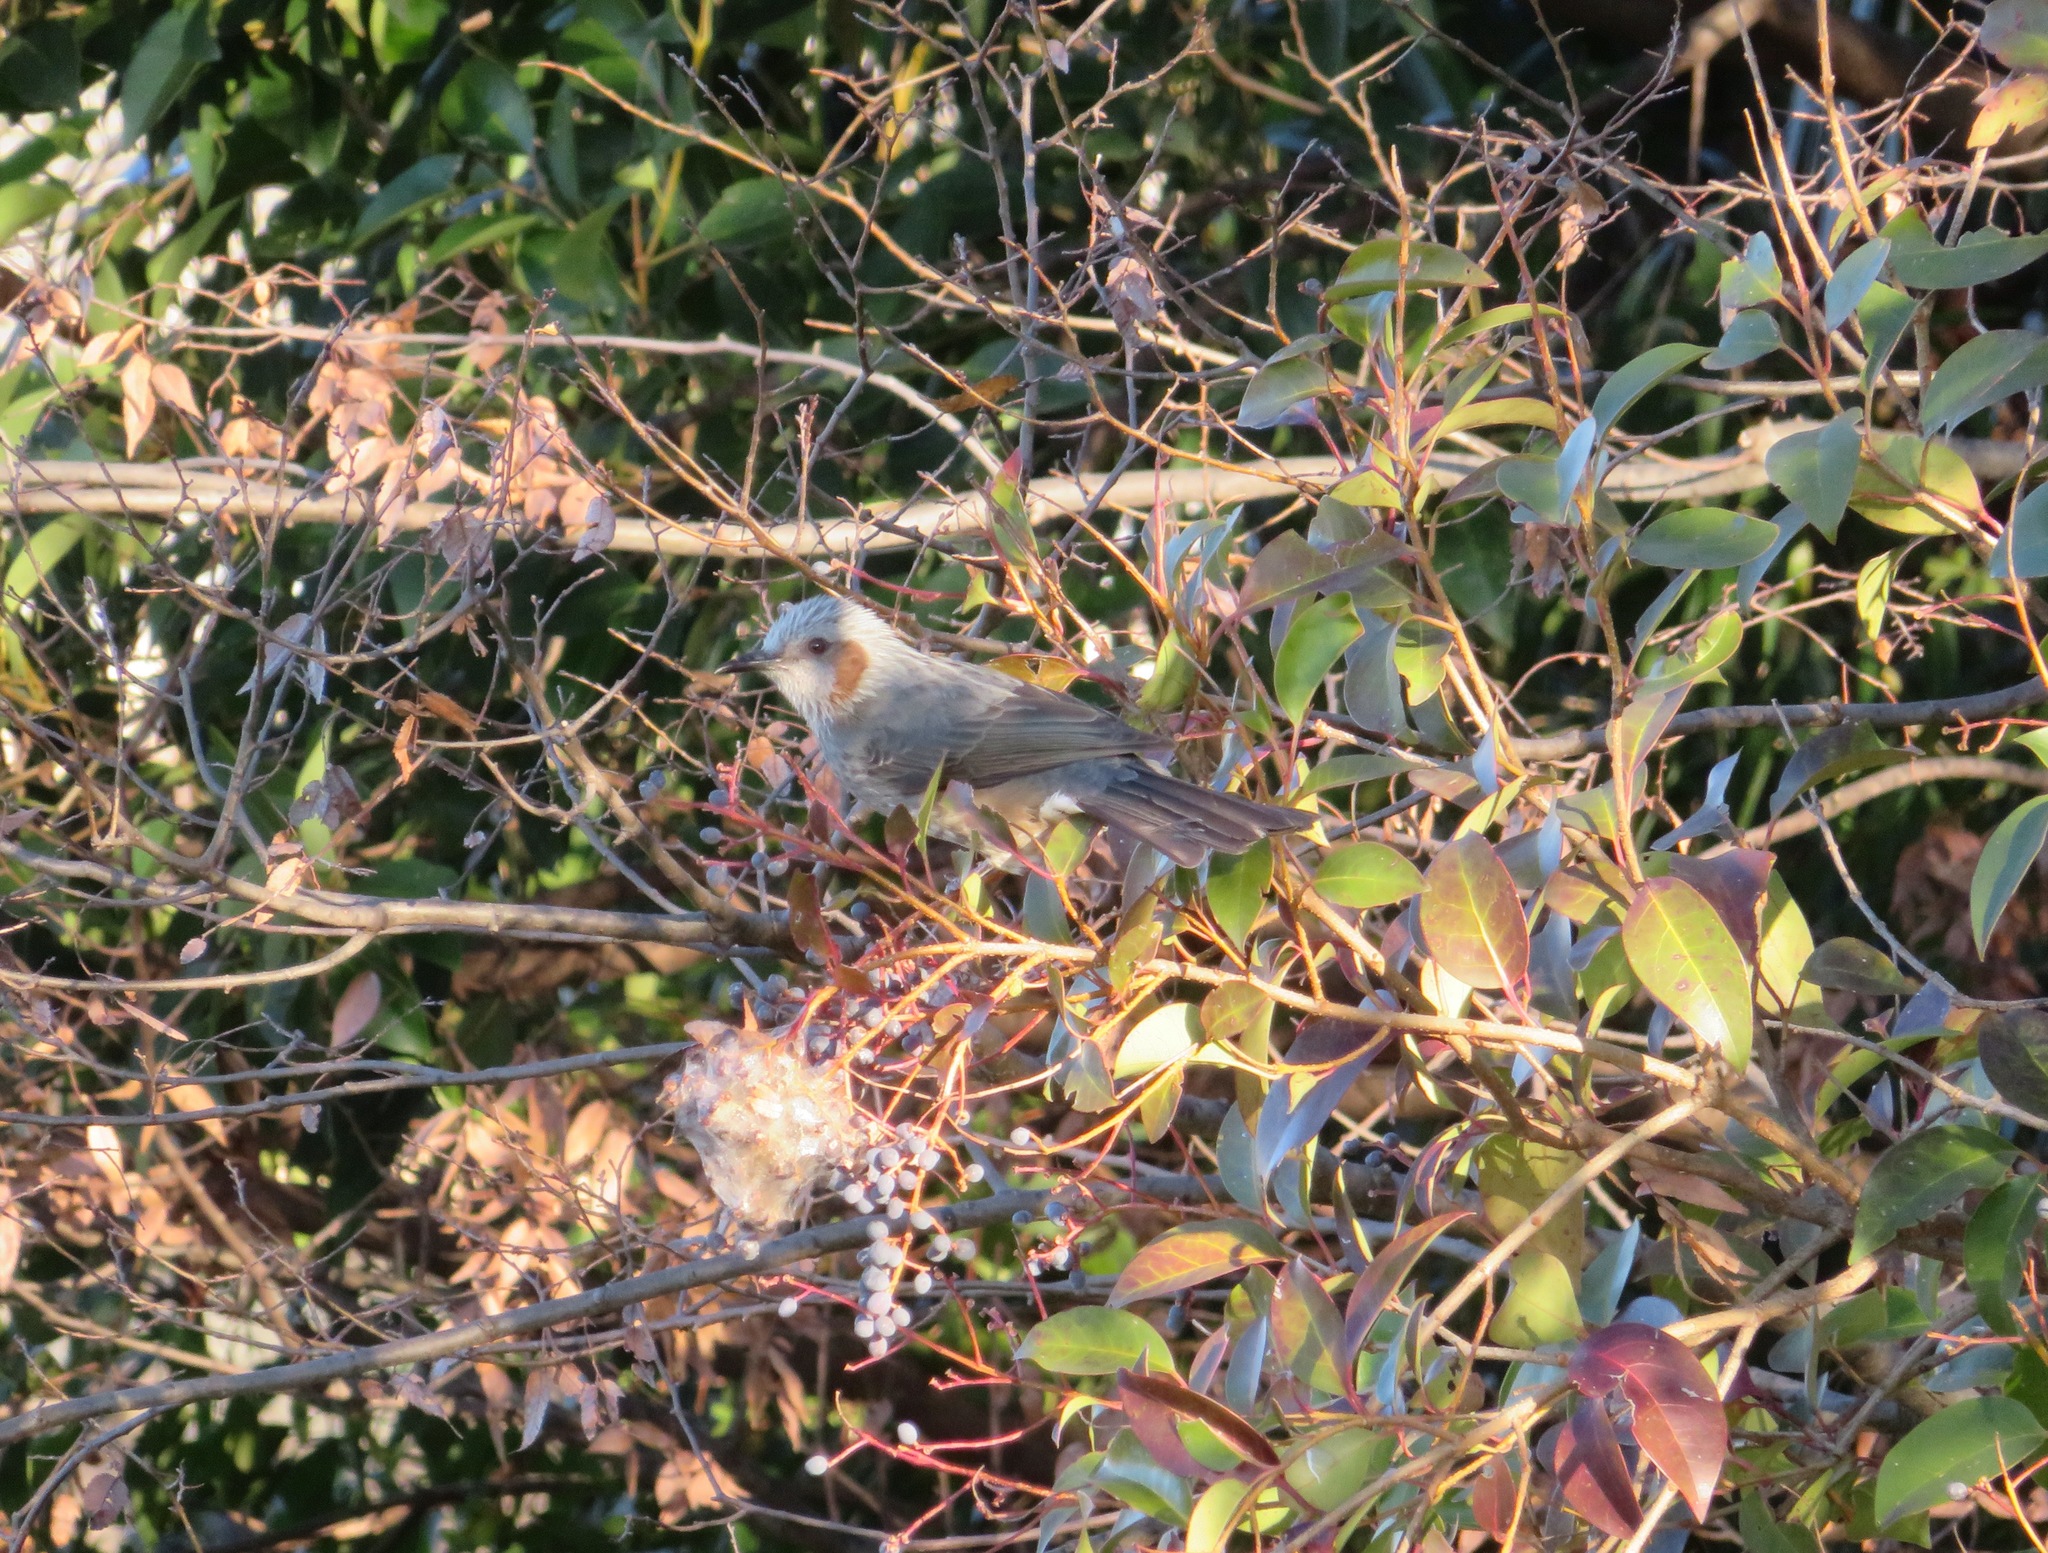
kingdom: Animalia
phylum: Chordata
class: Aves
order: Passeriformes
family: Pycnonotidae
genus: Hypsipetes
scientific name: Hypsipetes amaurotis
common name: Brown-eared bulbul
